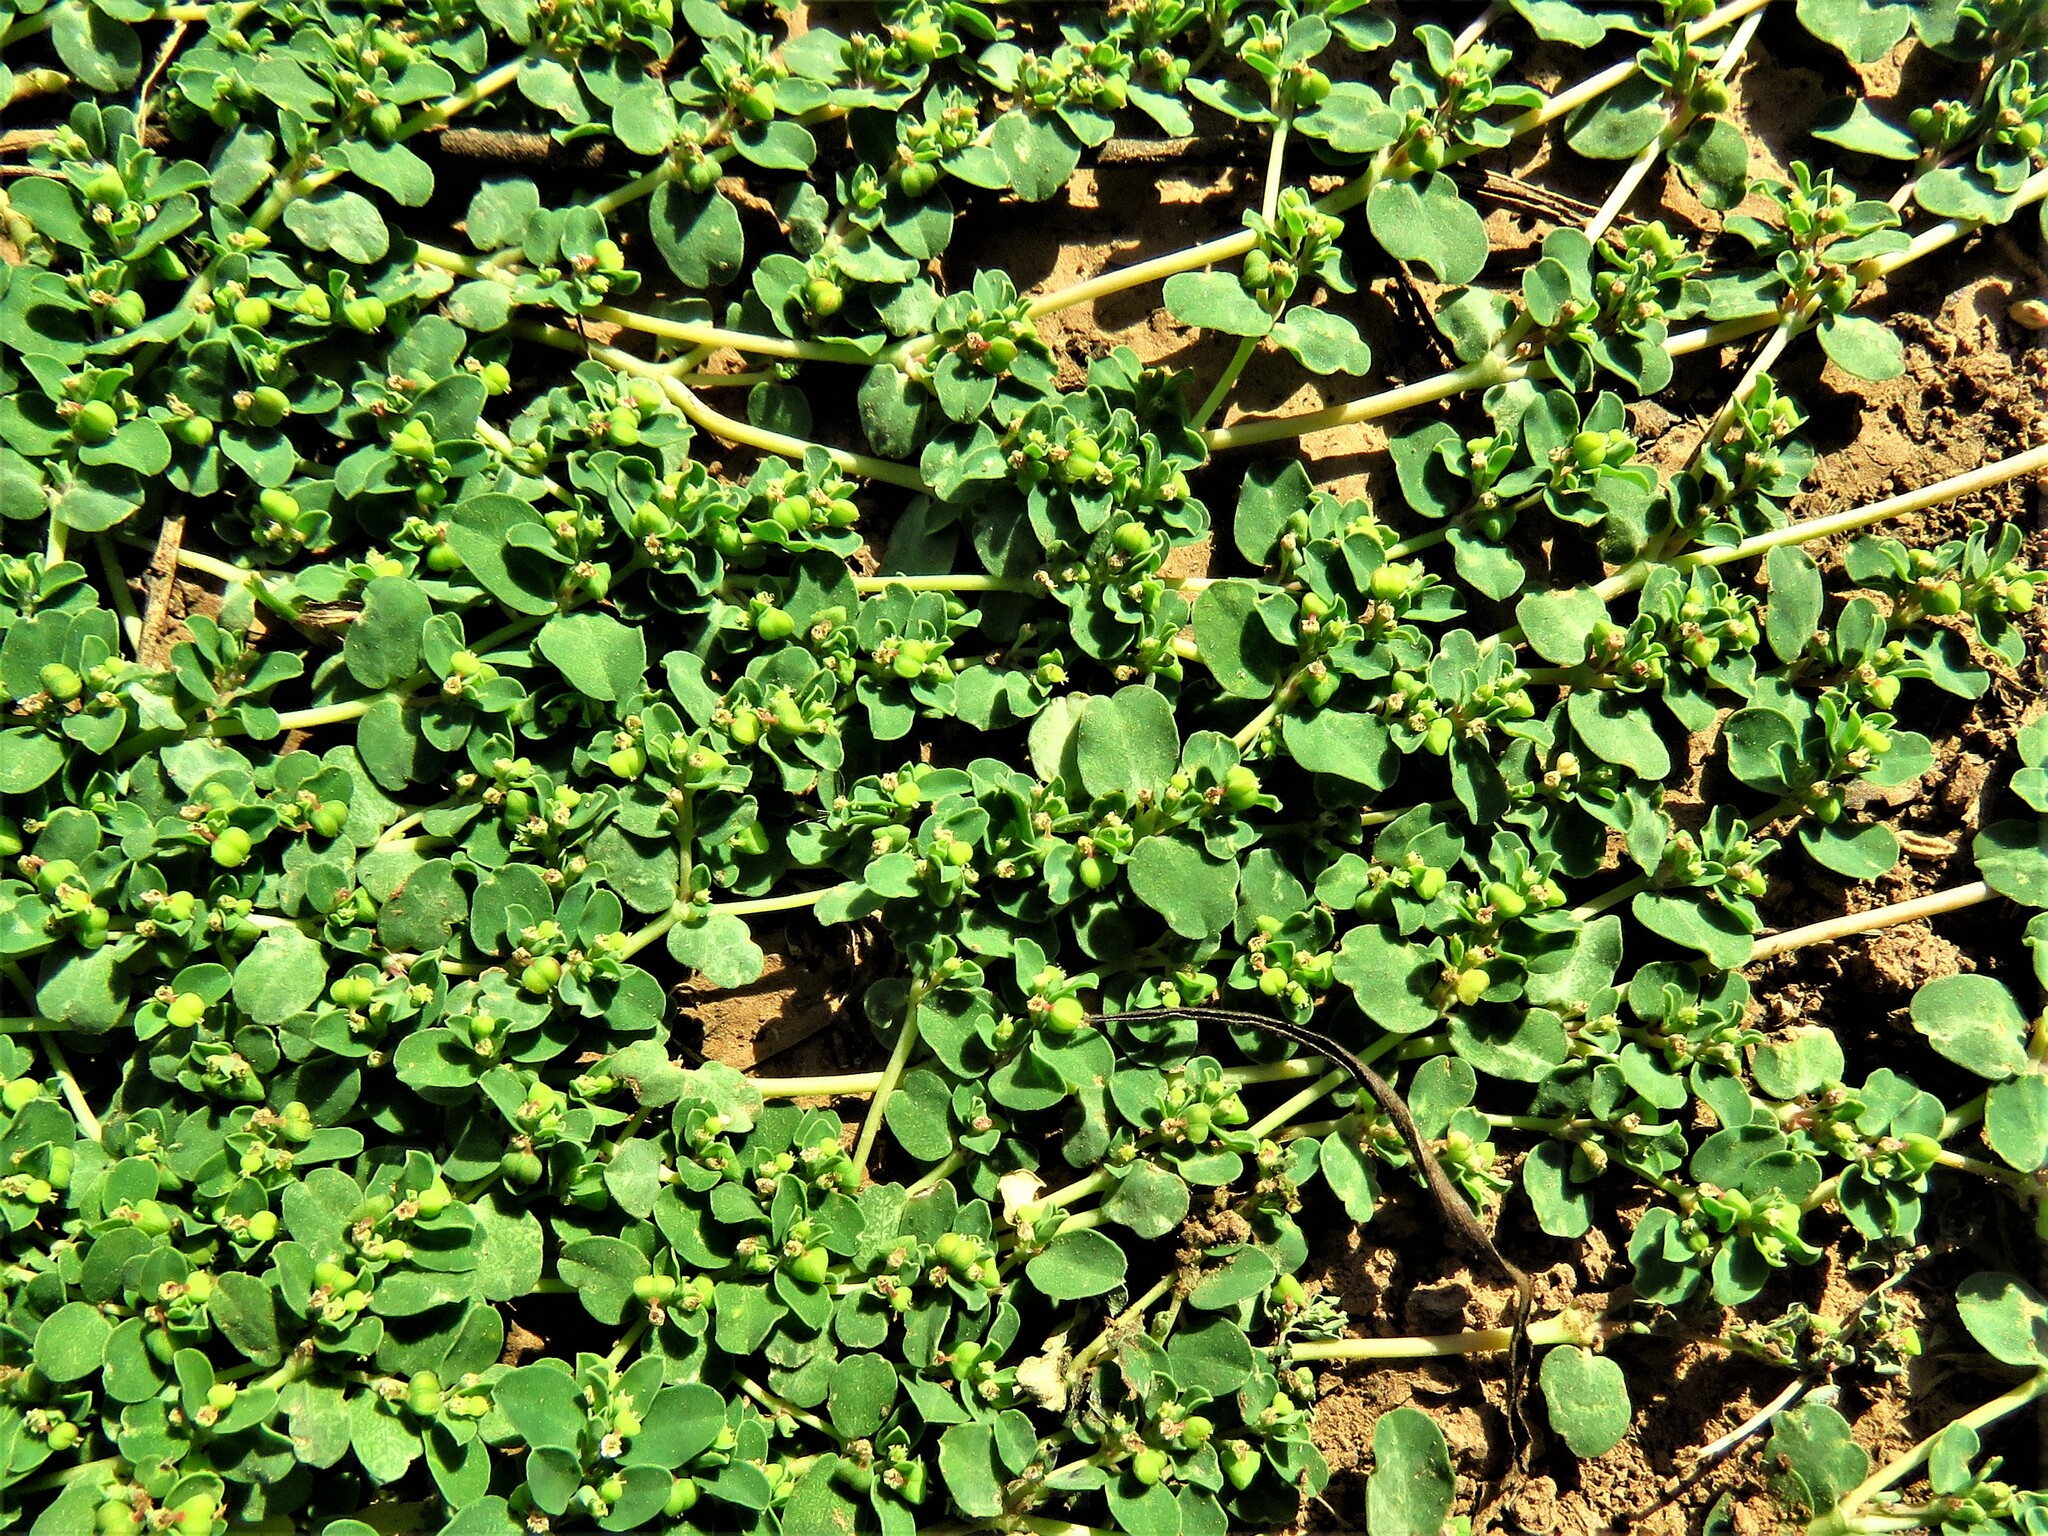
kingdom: Plantae
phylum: Tracheophyta
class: Magnoliopsida
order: Malpighiales
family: Euphorbiaceae
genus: Euphorbia
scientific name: Euphorbia serpens
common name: Matted sandmat
